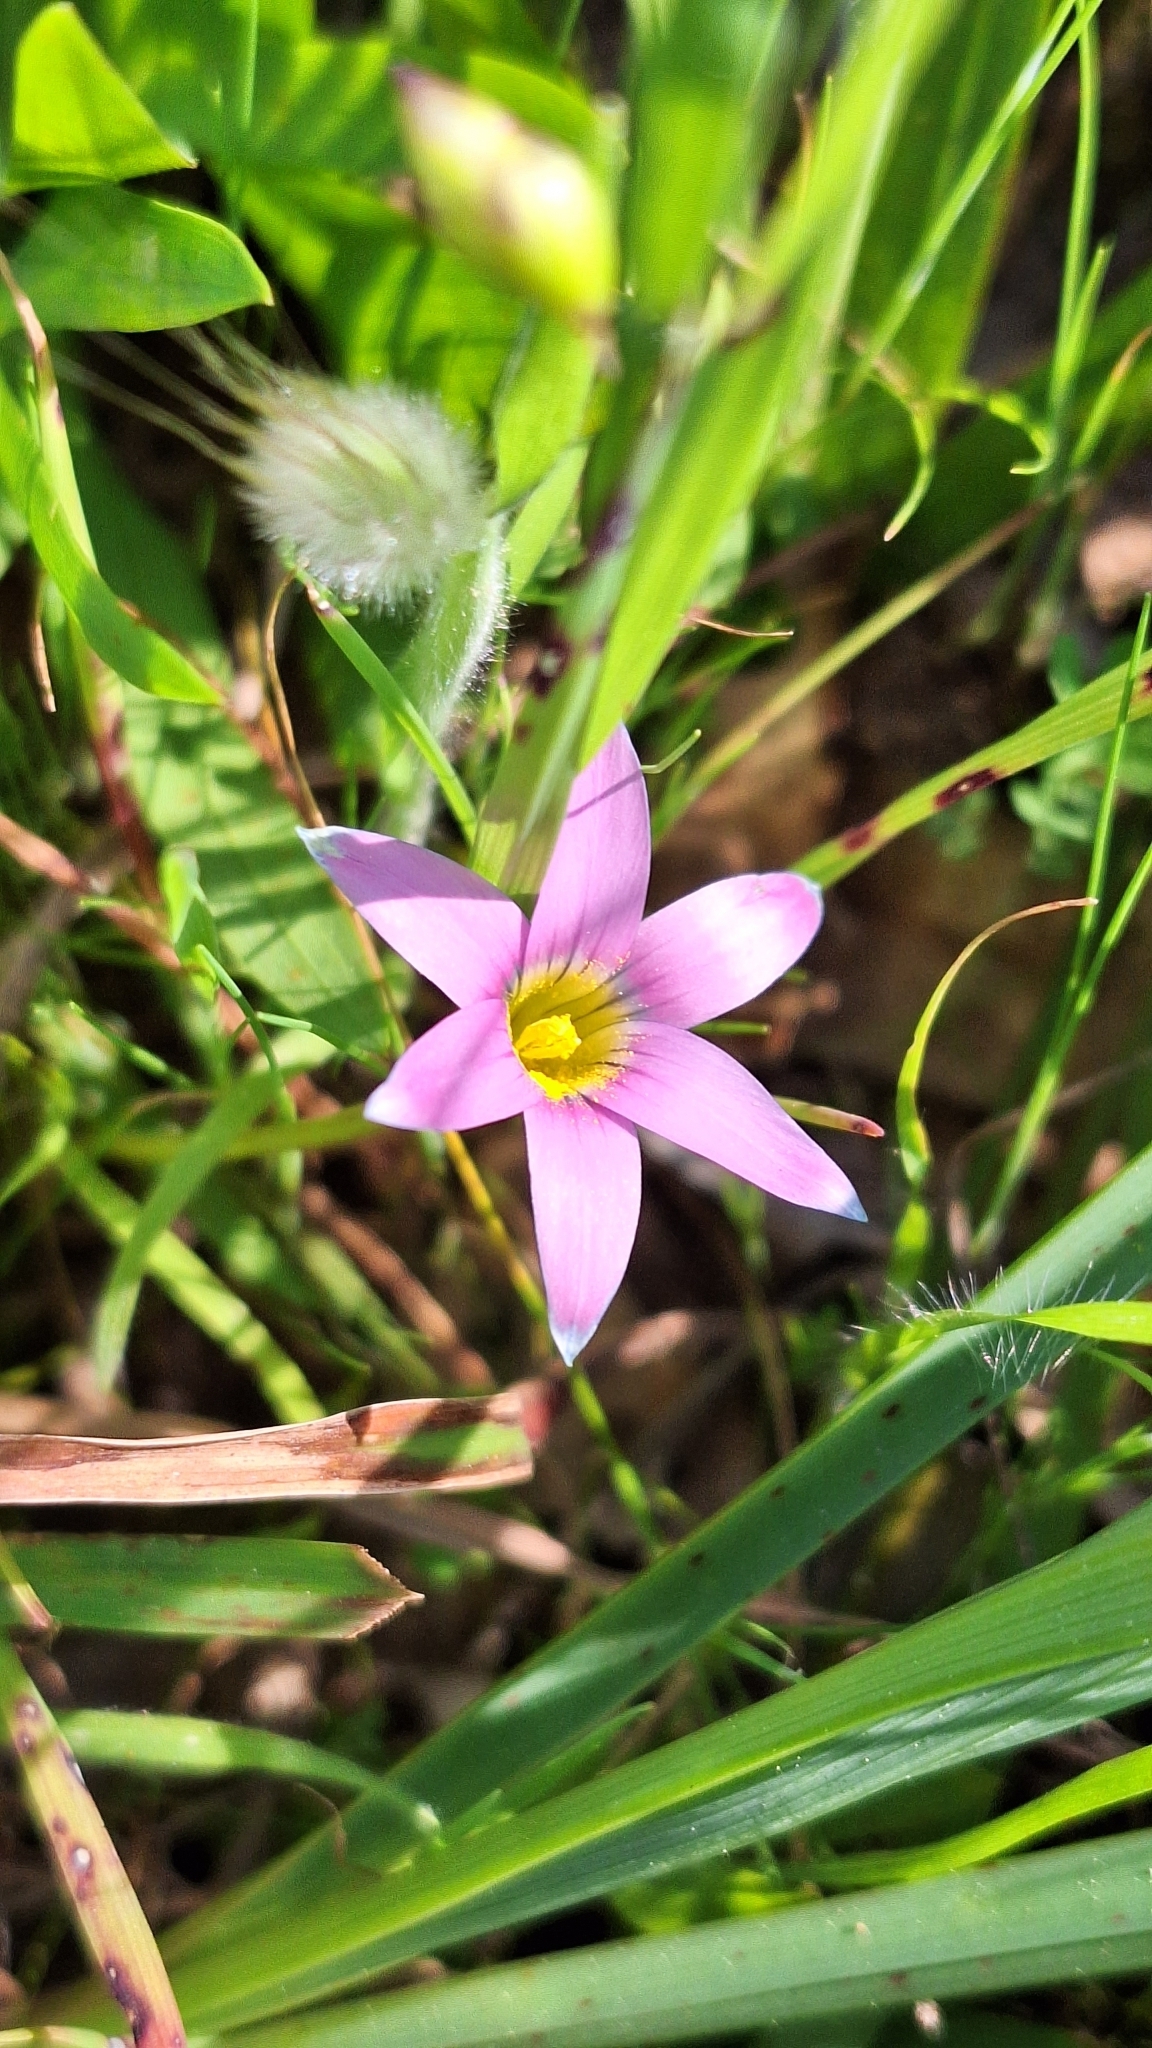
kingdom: Plantae
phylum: Tracheophyta
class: Liliopsida
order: Asparagales
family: Iridaceae
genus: Romulea
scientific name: Romulea rosea
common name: Oniongrass
